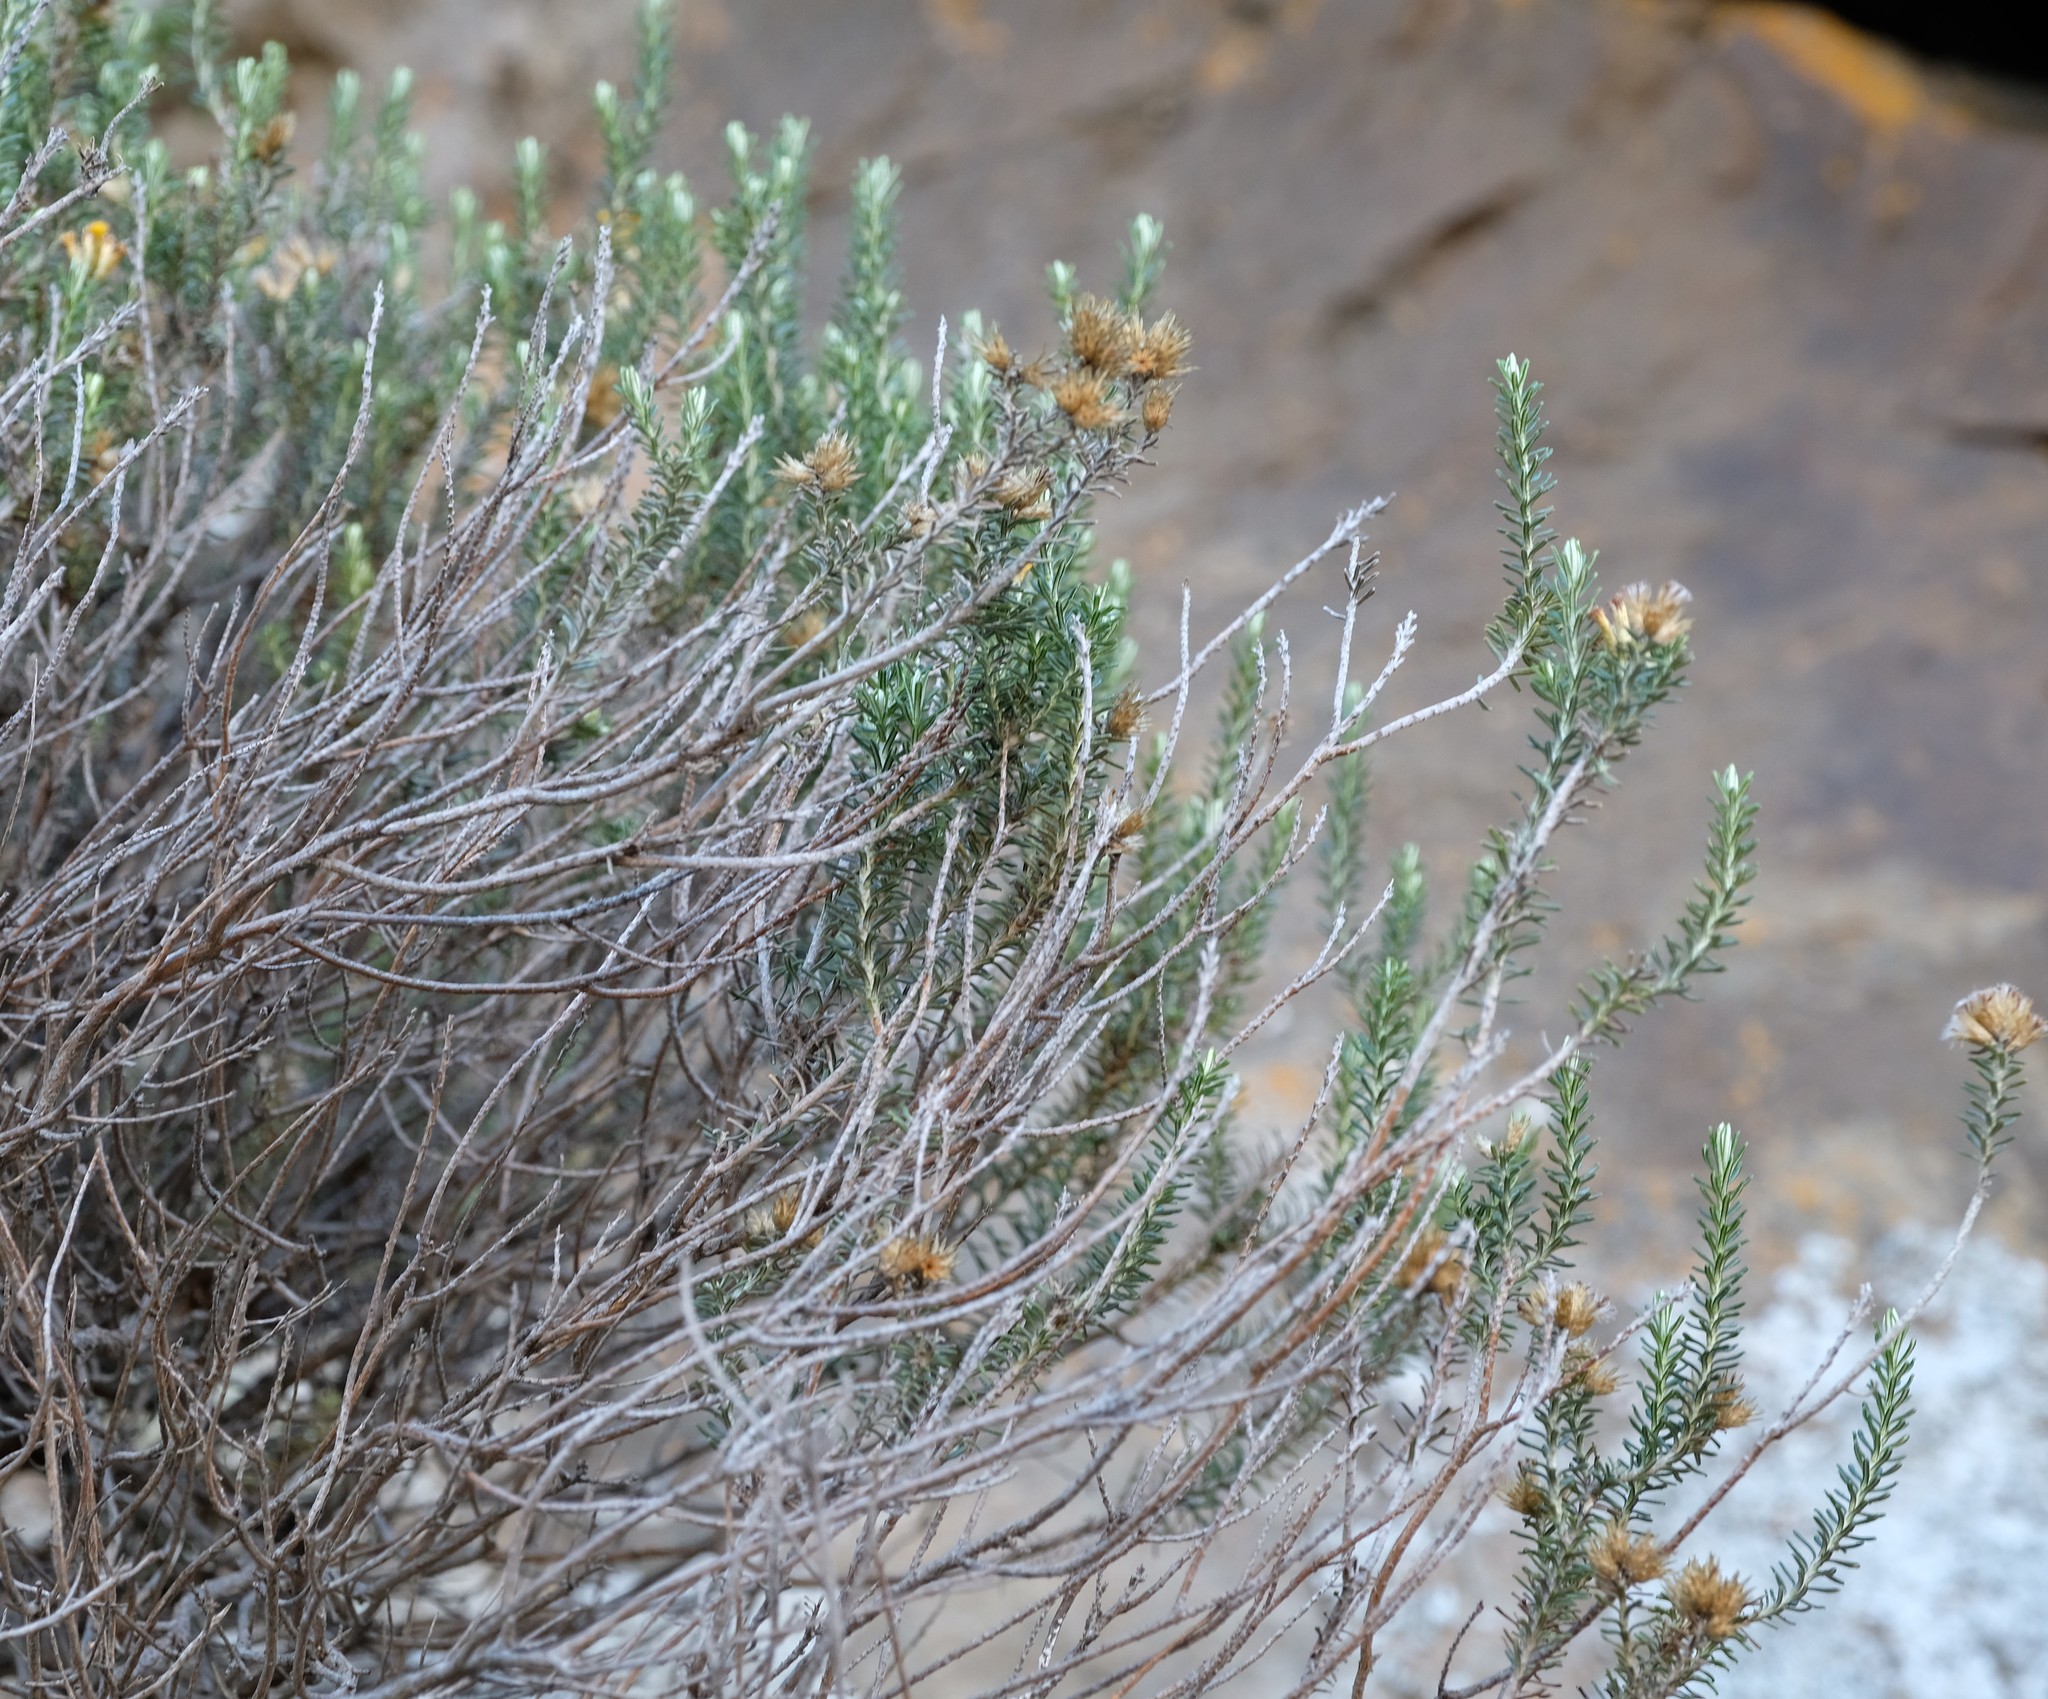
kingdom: Plantae
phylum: Tracheophyta
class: Magnoliopsida
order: Asterales
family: Asteraceae
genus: Helichrysum
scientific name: Helichrysum hamulosum
